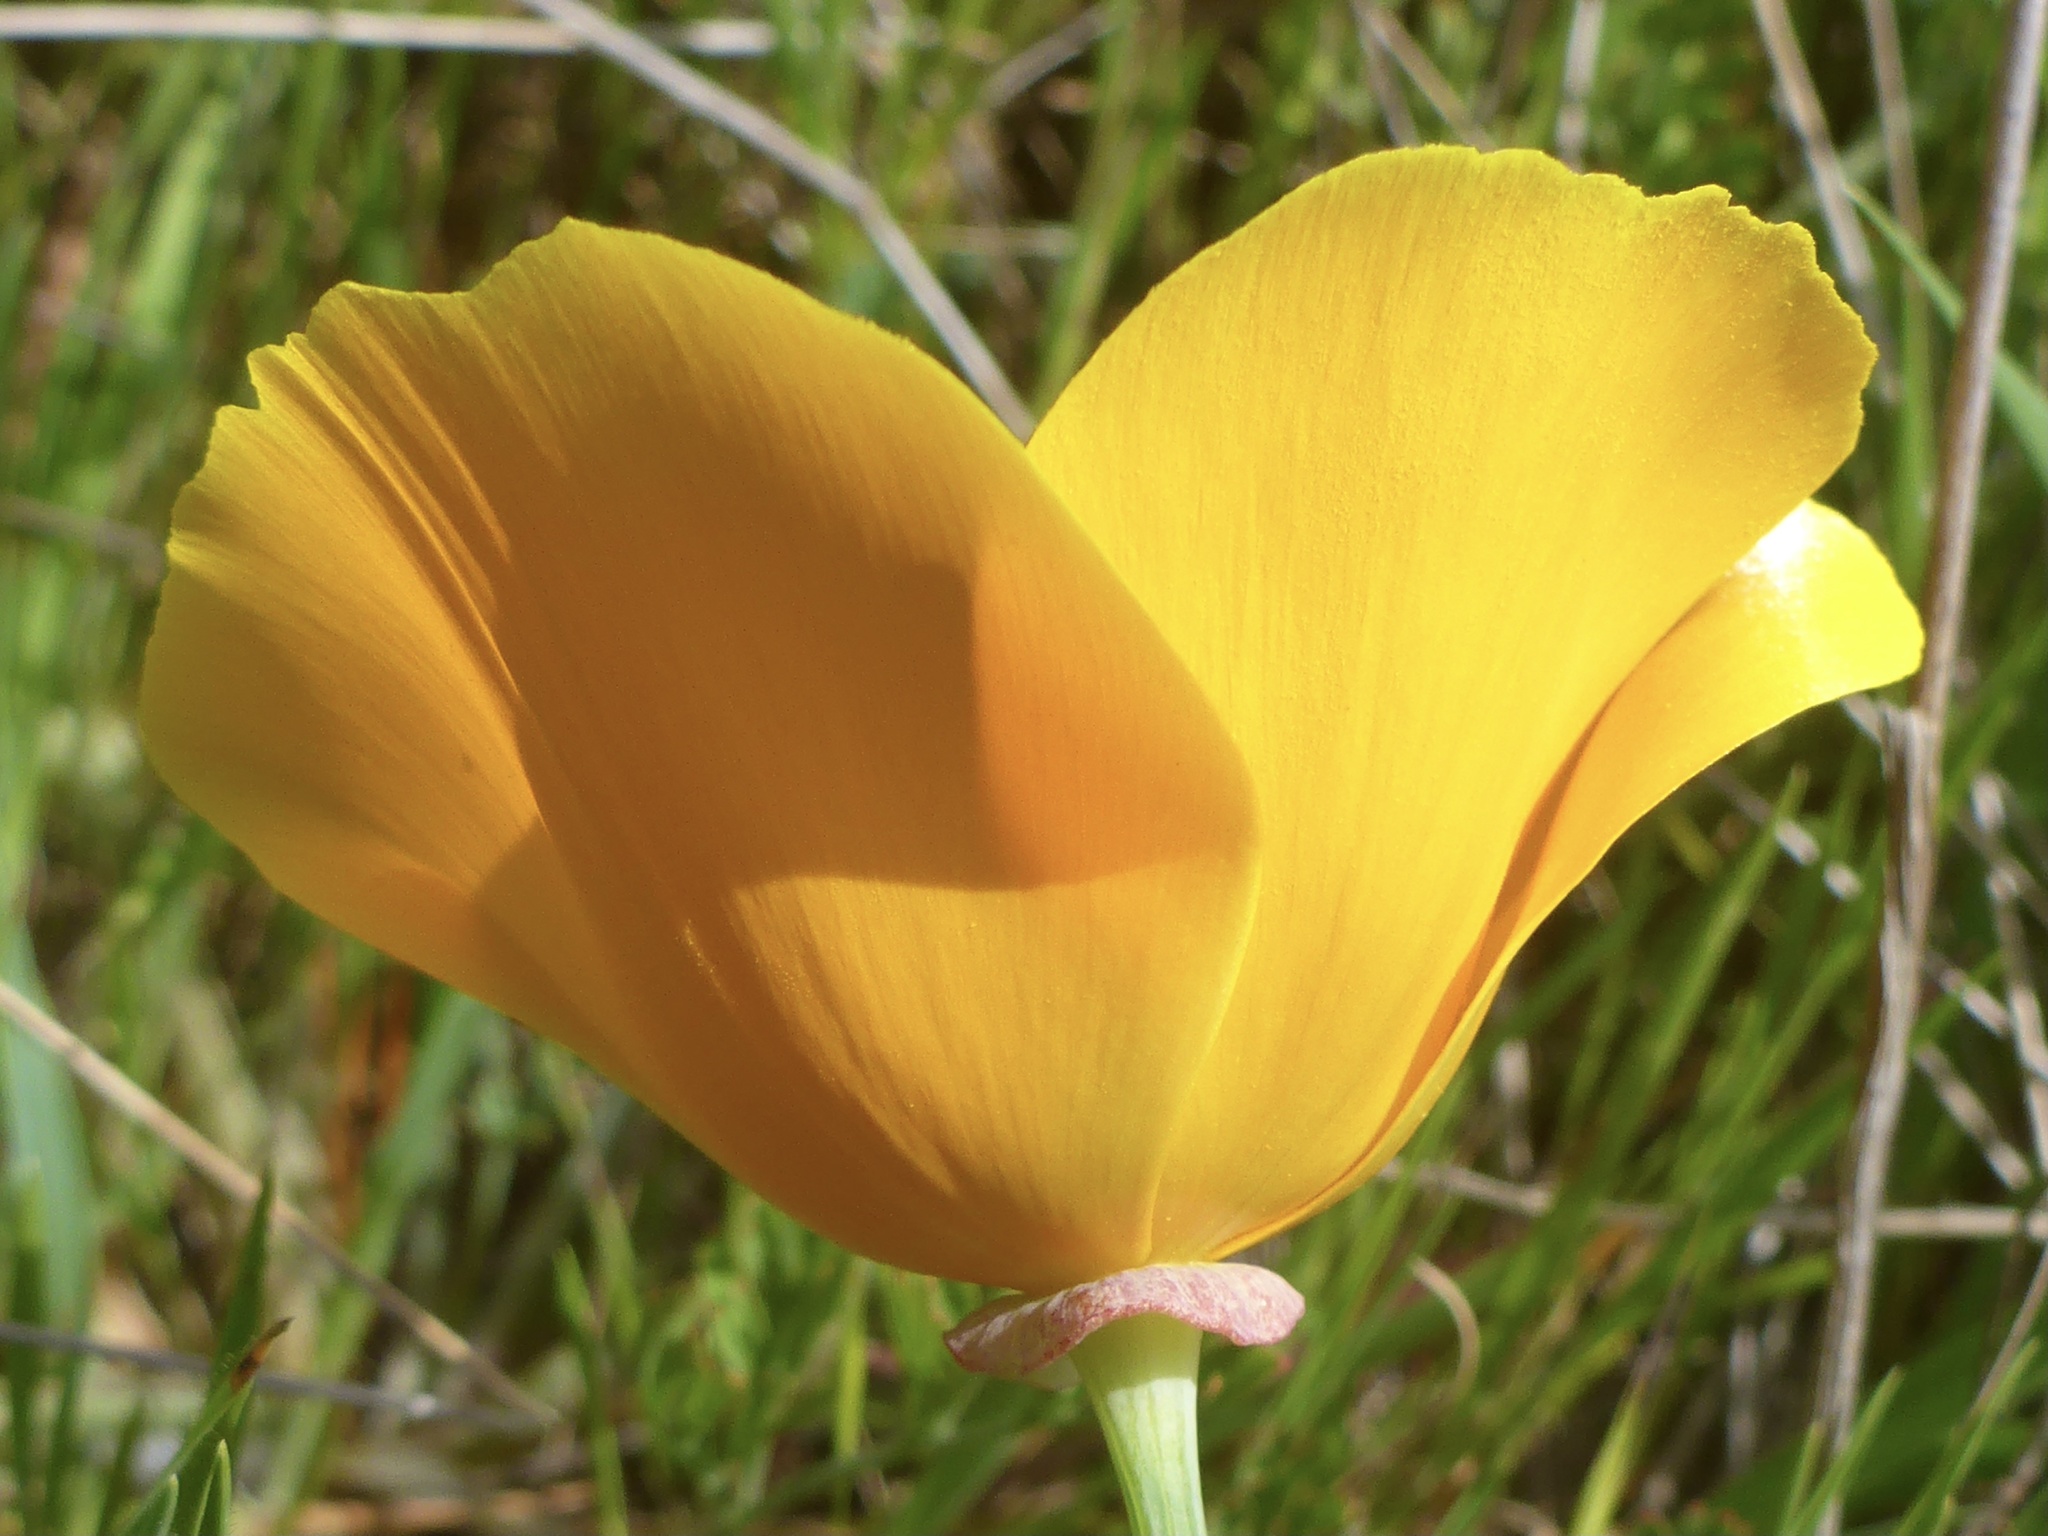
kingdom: Plantae
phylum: Tracheophyta
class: Magnoliopsida
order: Ranunculales
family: Papaveraceae
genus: Eschscholzia
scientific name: Eschscholzia californica
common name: California poppy
